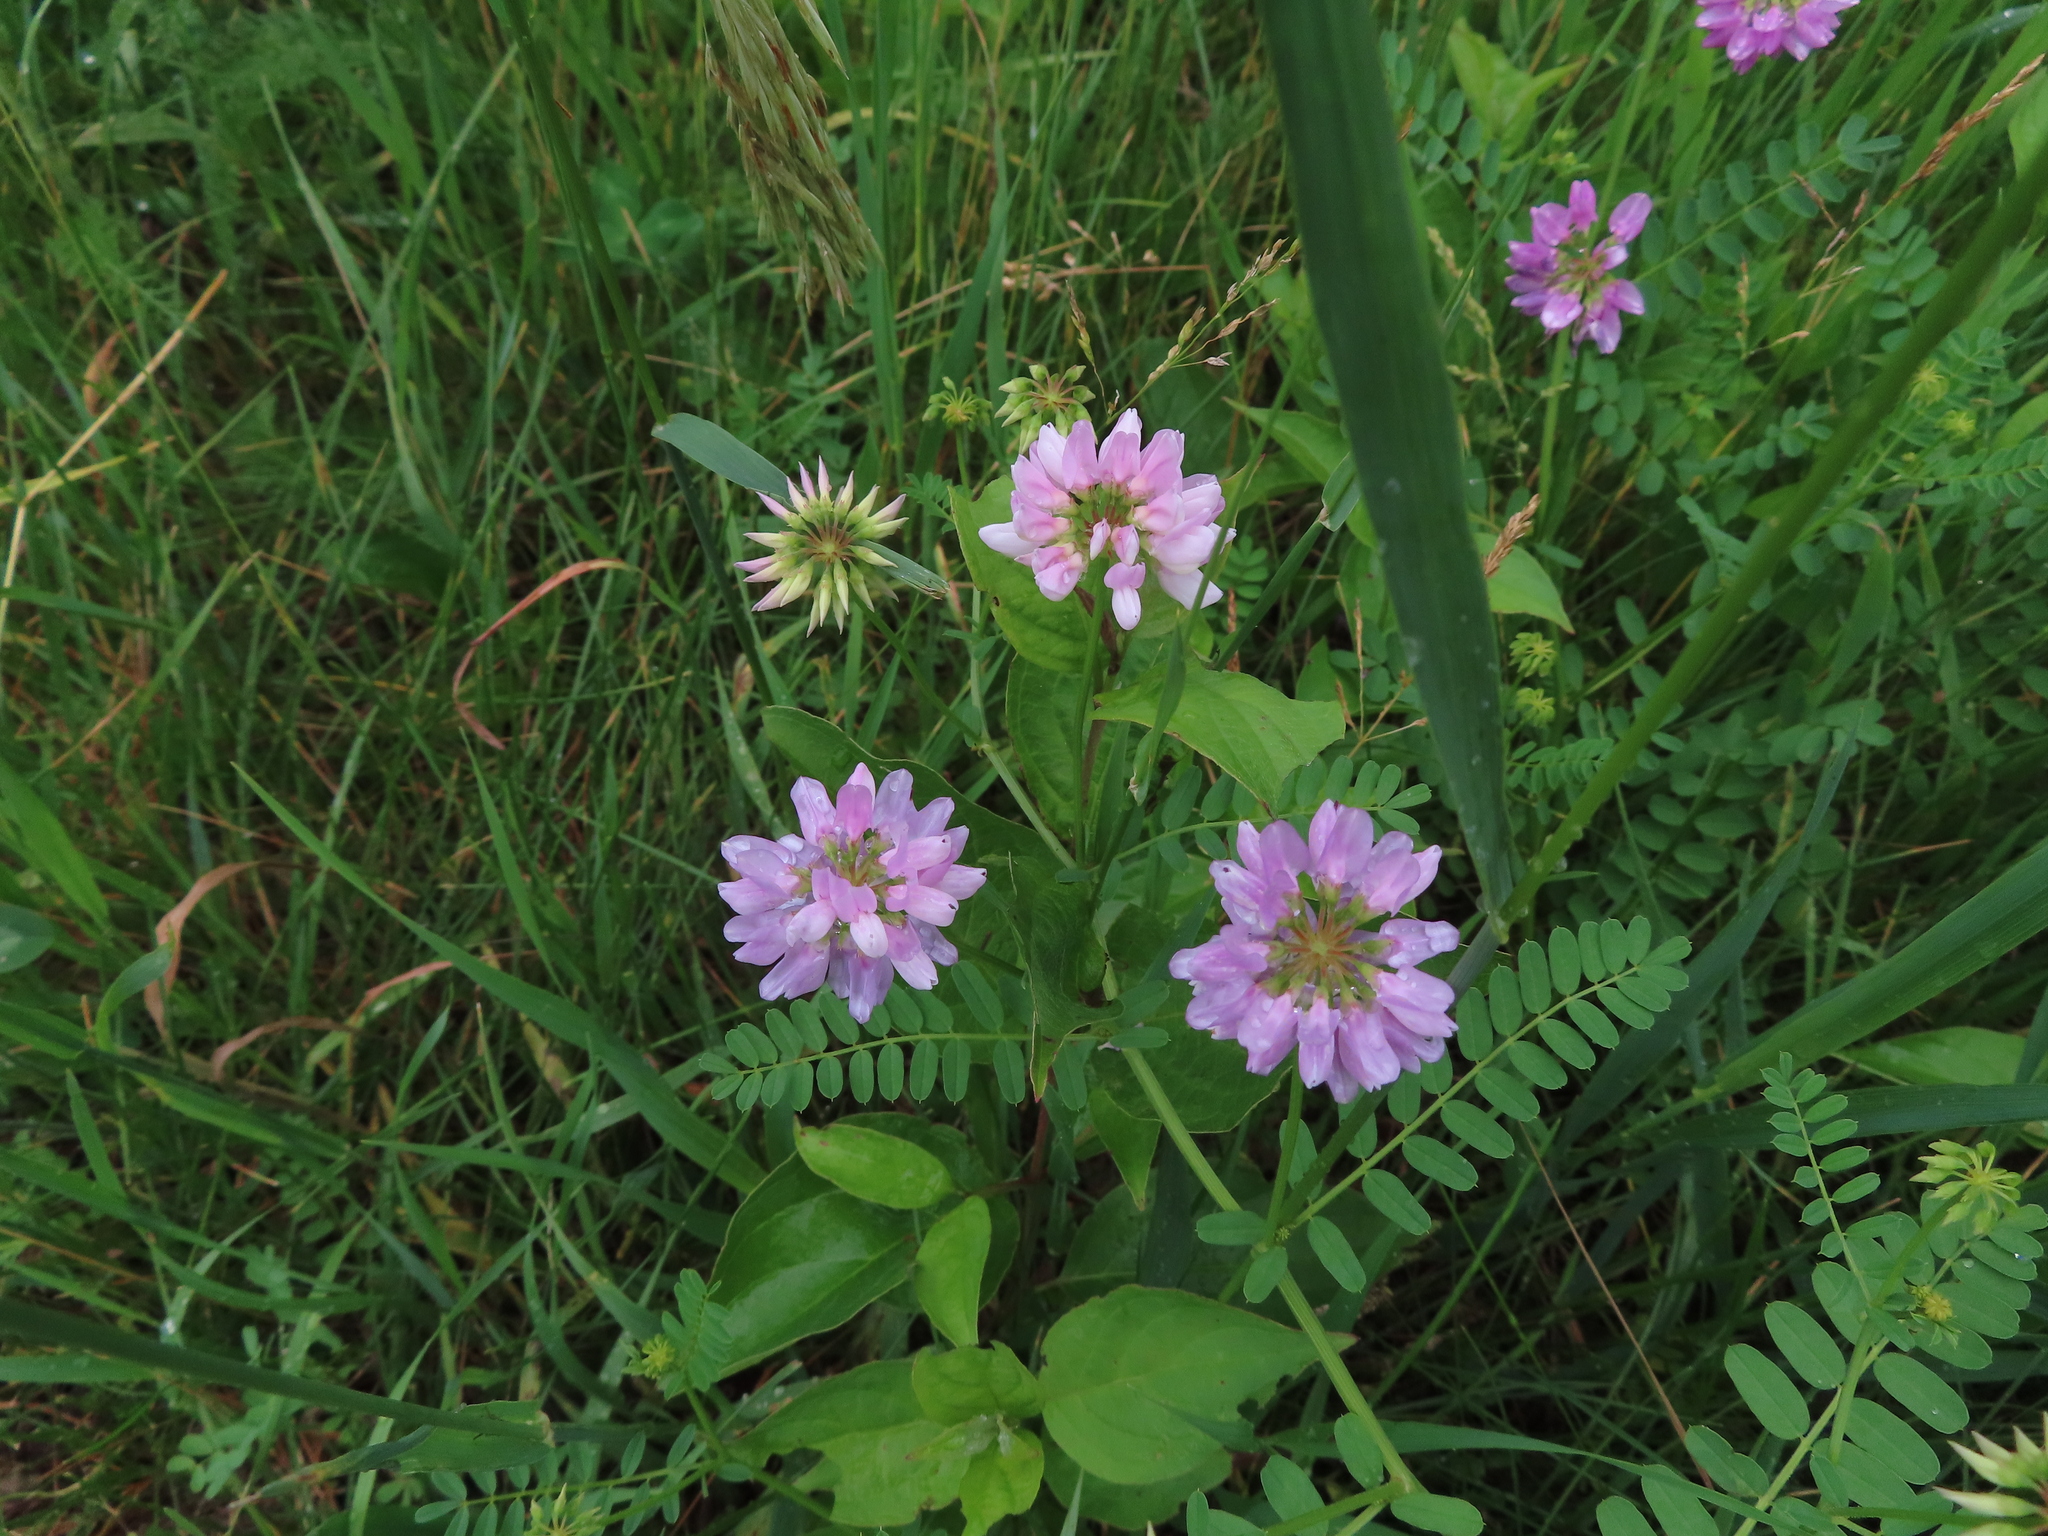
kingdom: Plantae
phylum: Tracheophyta
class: Magnoliopsida
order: Fabales
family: Fabaceae
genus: Coronilla
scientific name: Coronilla varia
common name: Crownvetch
